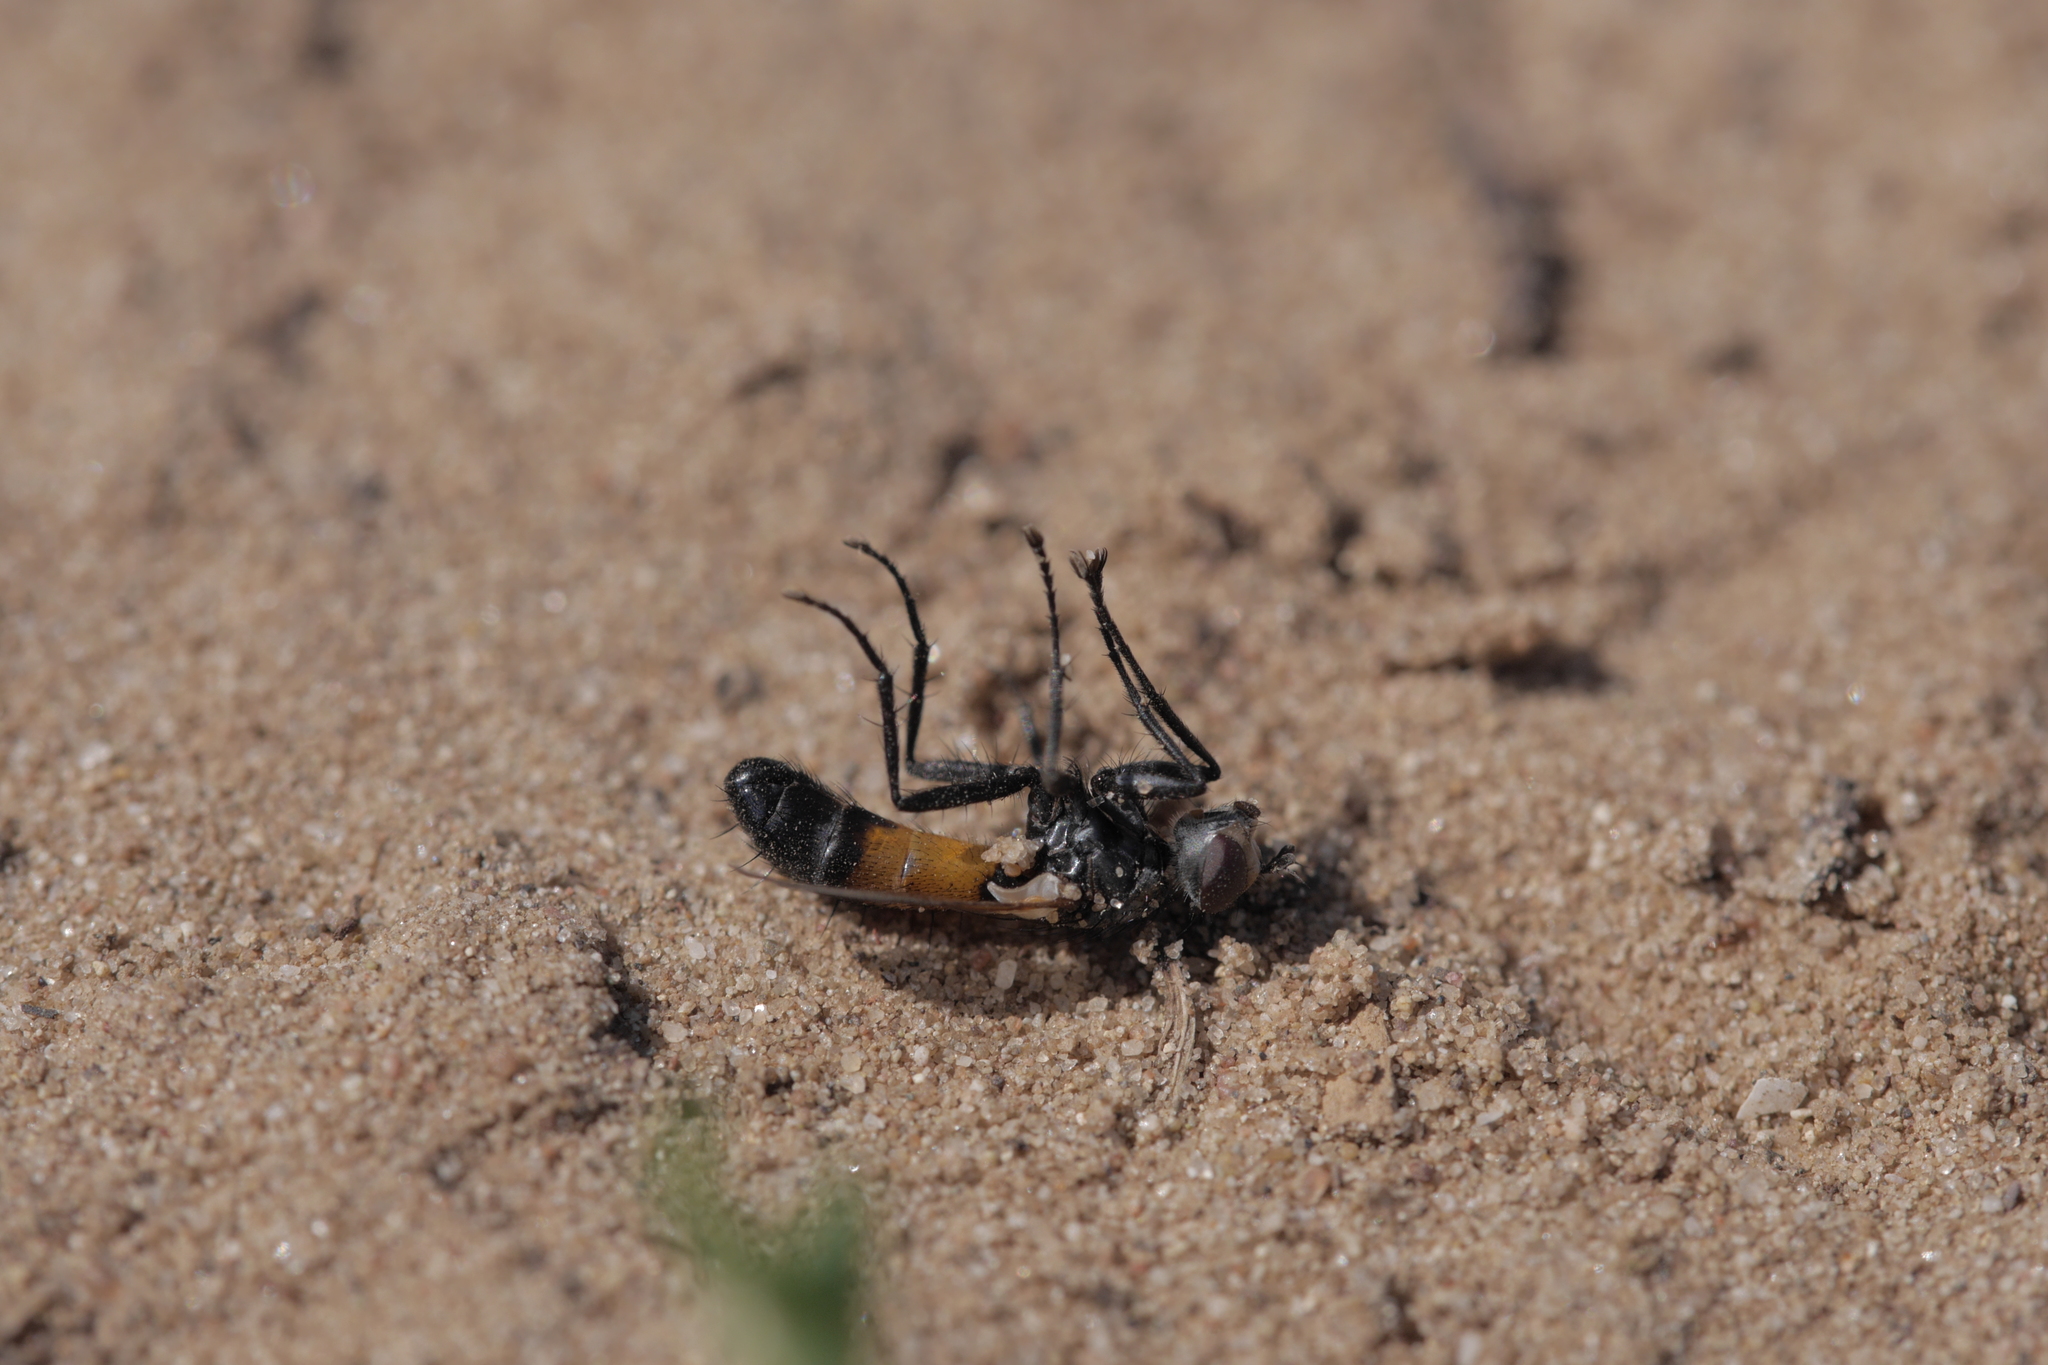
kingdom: Animalia
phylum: Arthropoda
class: Insecta
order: Diptera
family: Tachinidae
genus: Cylindromyia
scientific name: Cylindromyia bicolor
